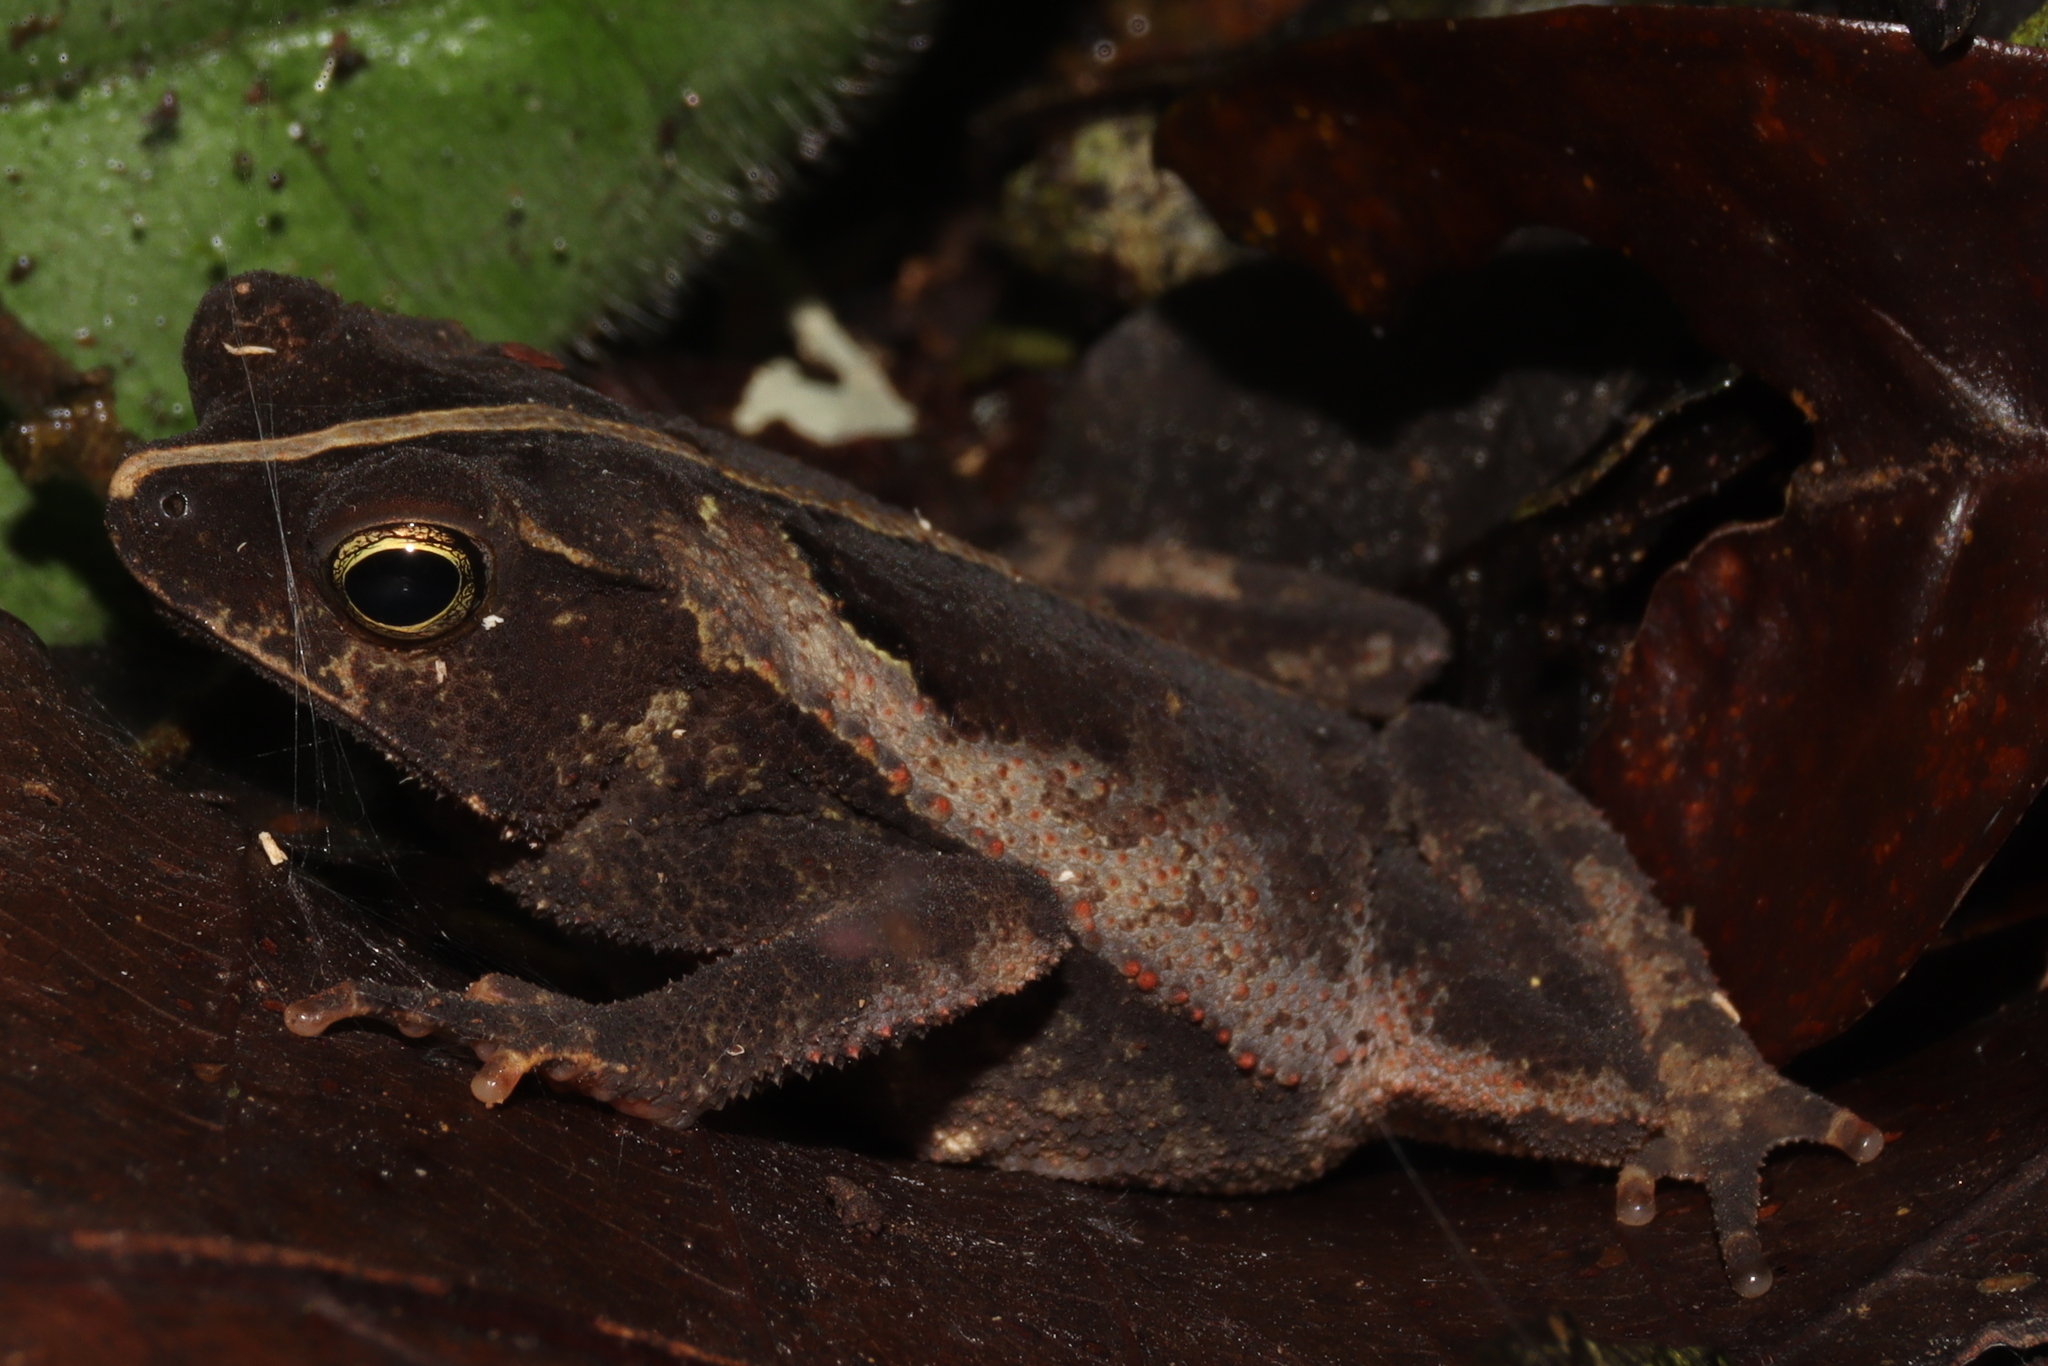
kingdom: Animalia
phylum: Chordata
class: Amphibia
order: Anura
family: Bufonidae
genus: Rhinella
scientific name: Rhinella alata
